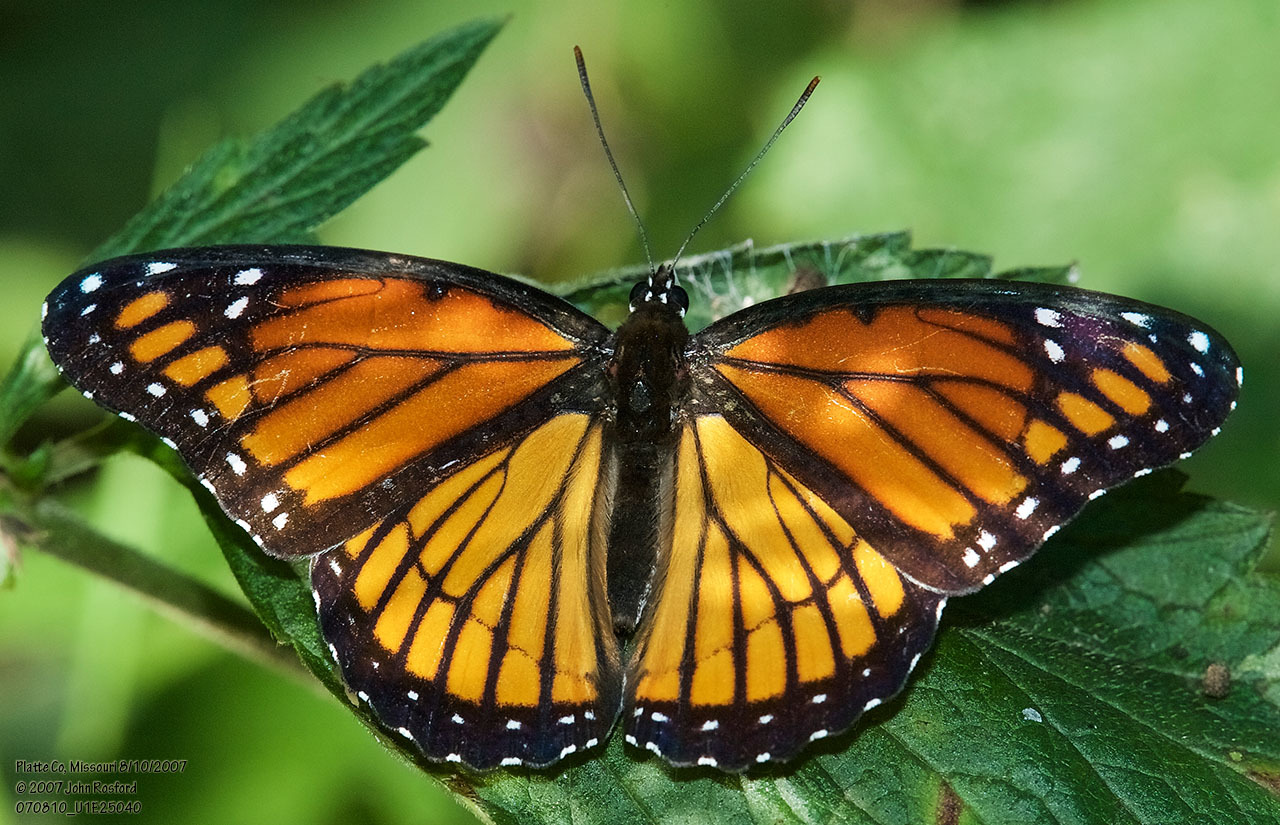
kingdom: Animalia
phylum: Arthropoda
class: Insecta
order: Lepidoptera
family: Nymphalidae
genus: Limenitis
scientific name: Limenitis archippus
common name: Viceroy
